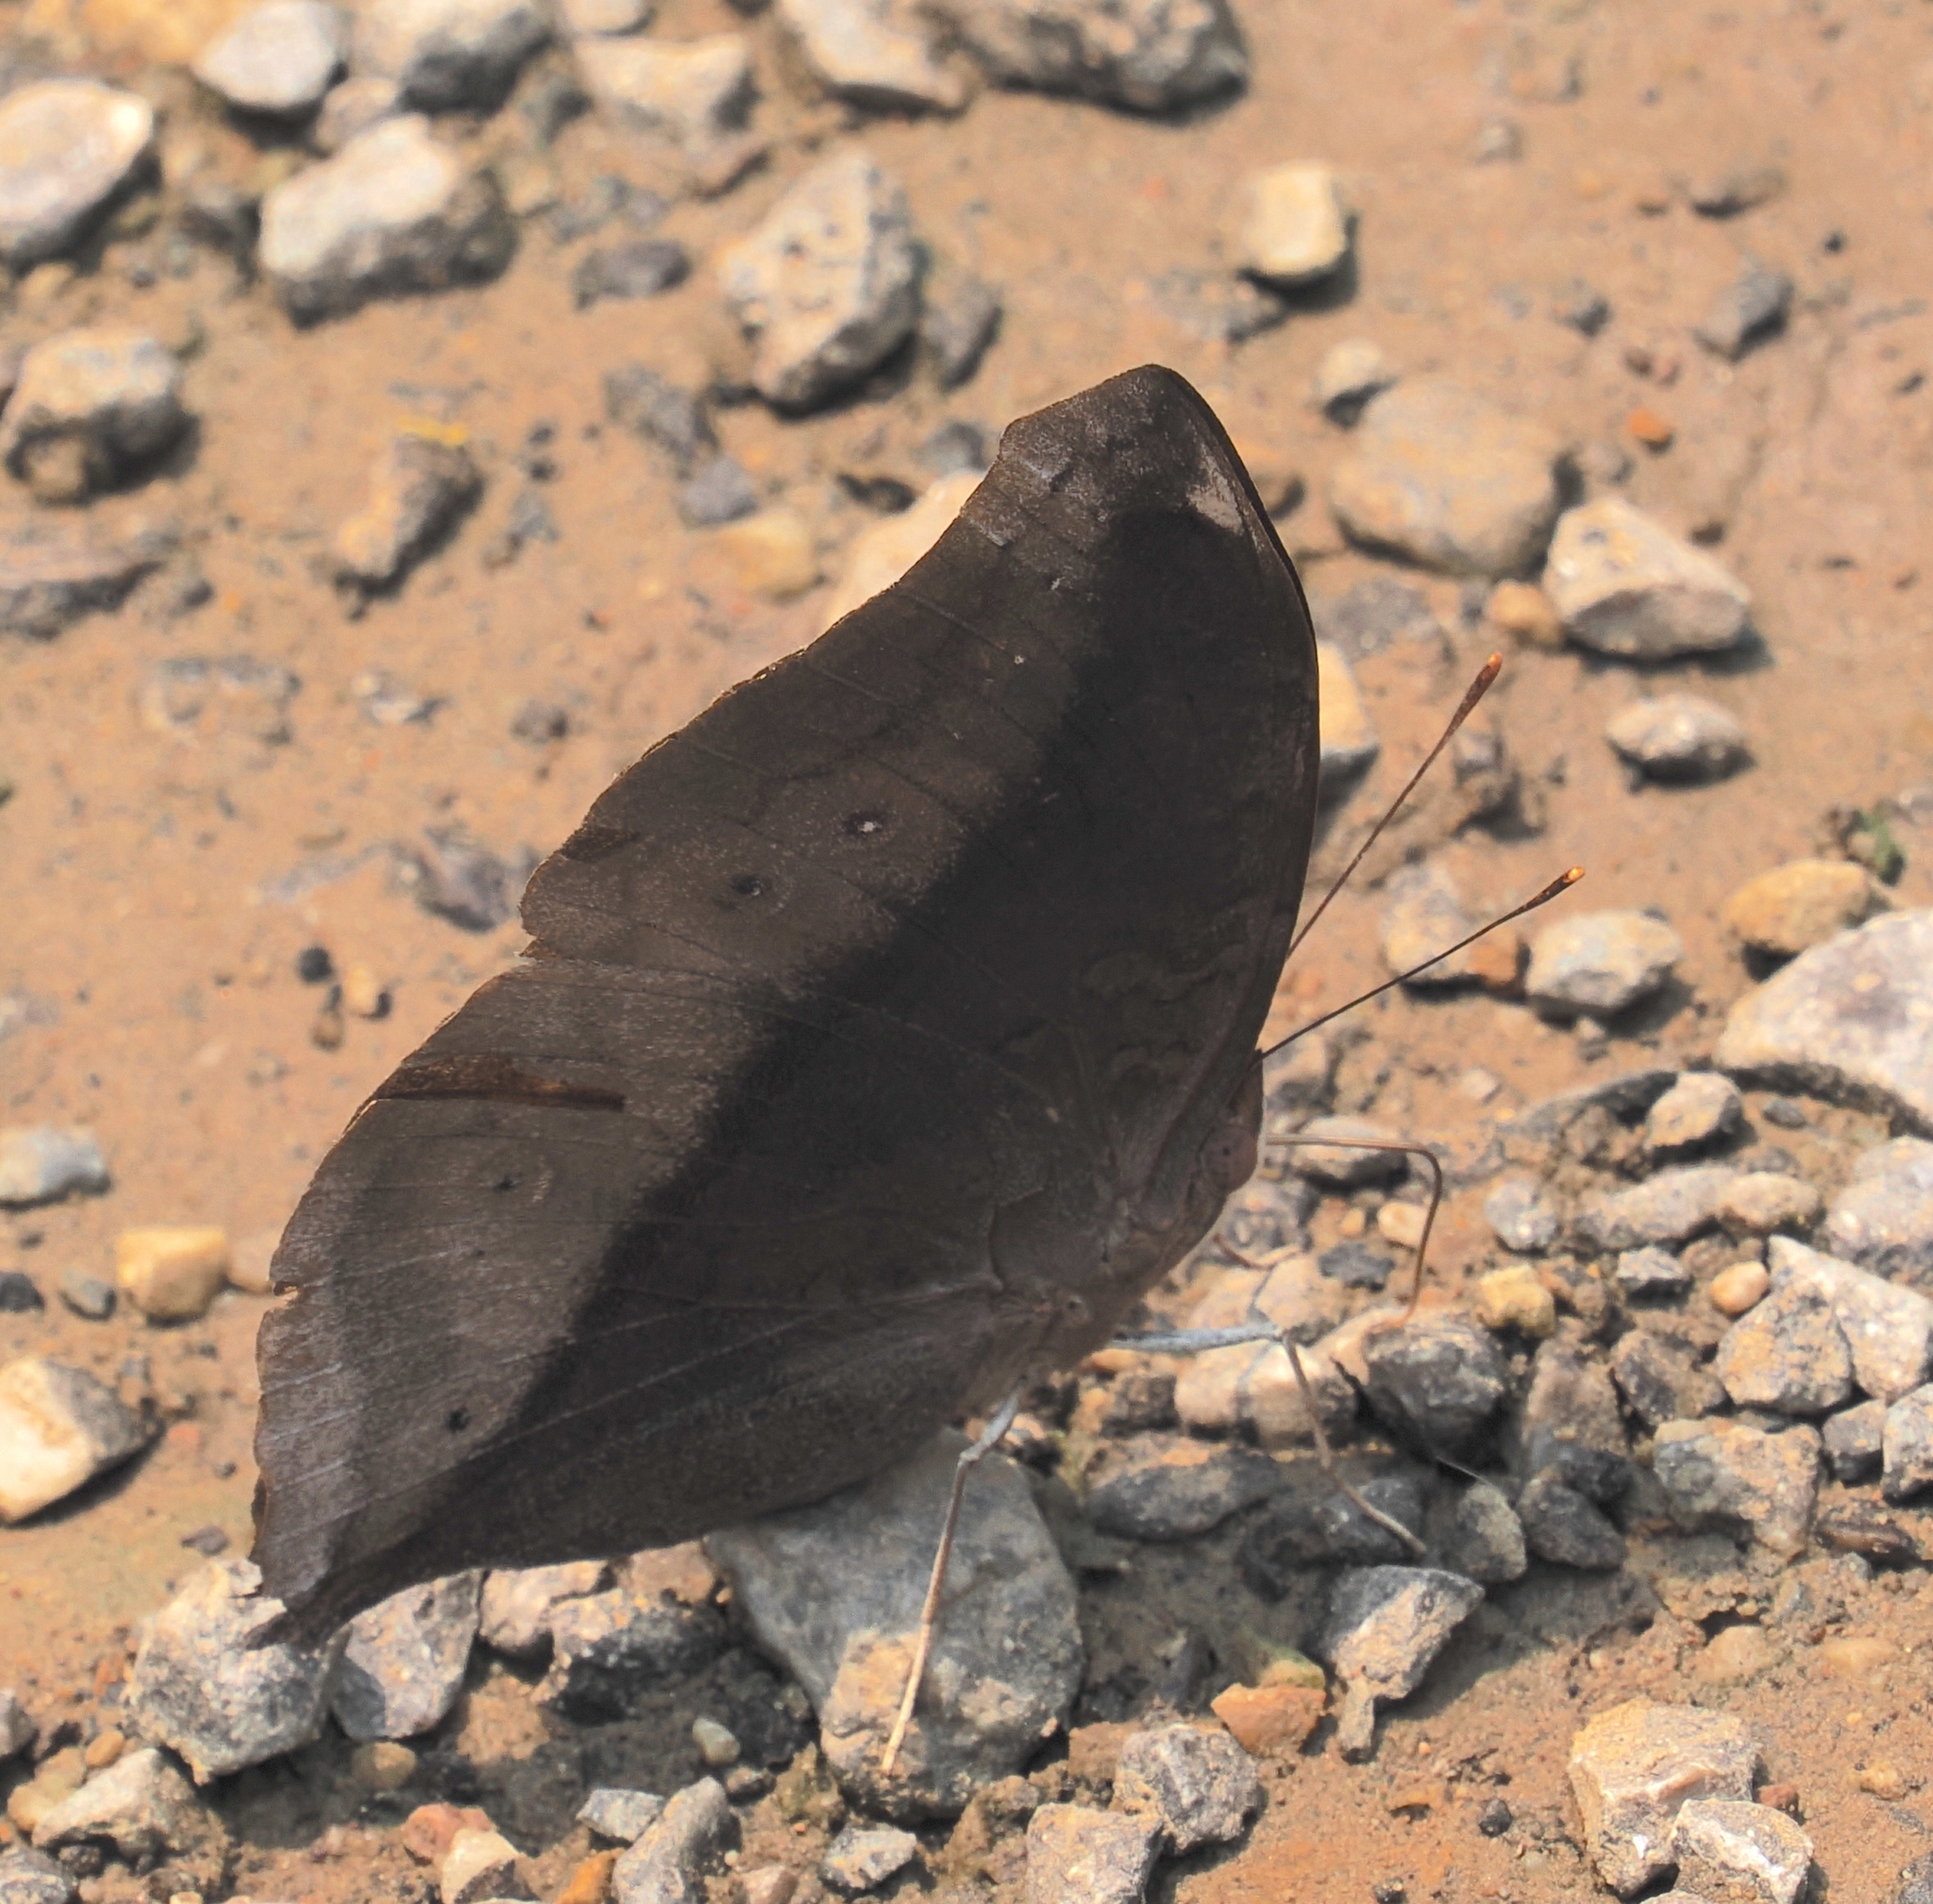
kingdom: Animalia
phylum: Arthropoda
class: Insecta
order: Lepidoptera
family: Nymphalidae
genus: Doleschallia
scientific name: Doleschallia bisaltide
